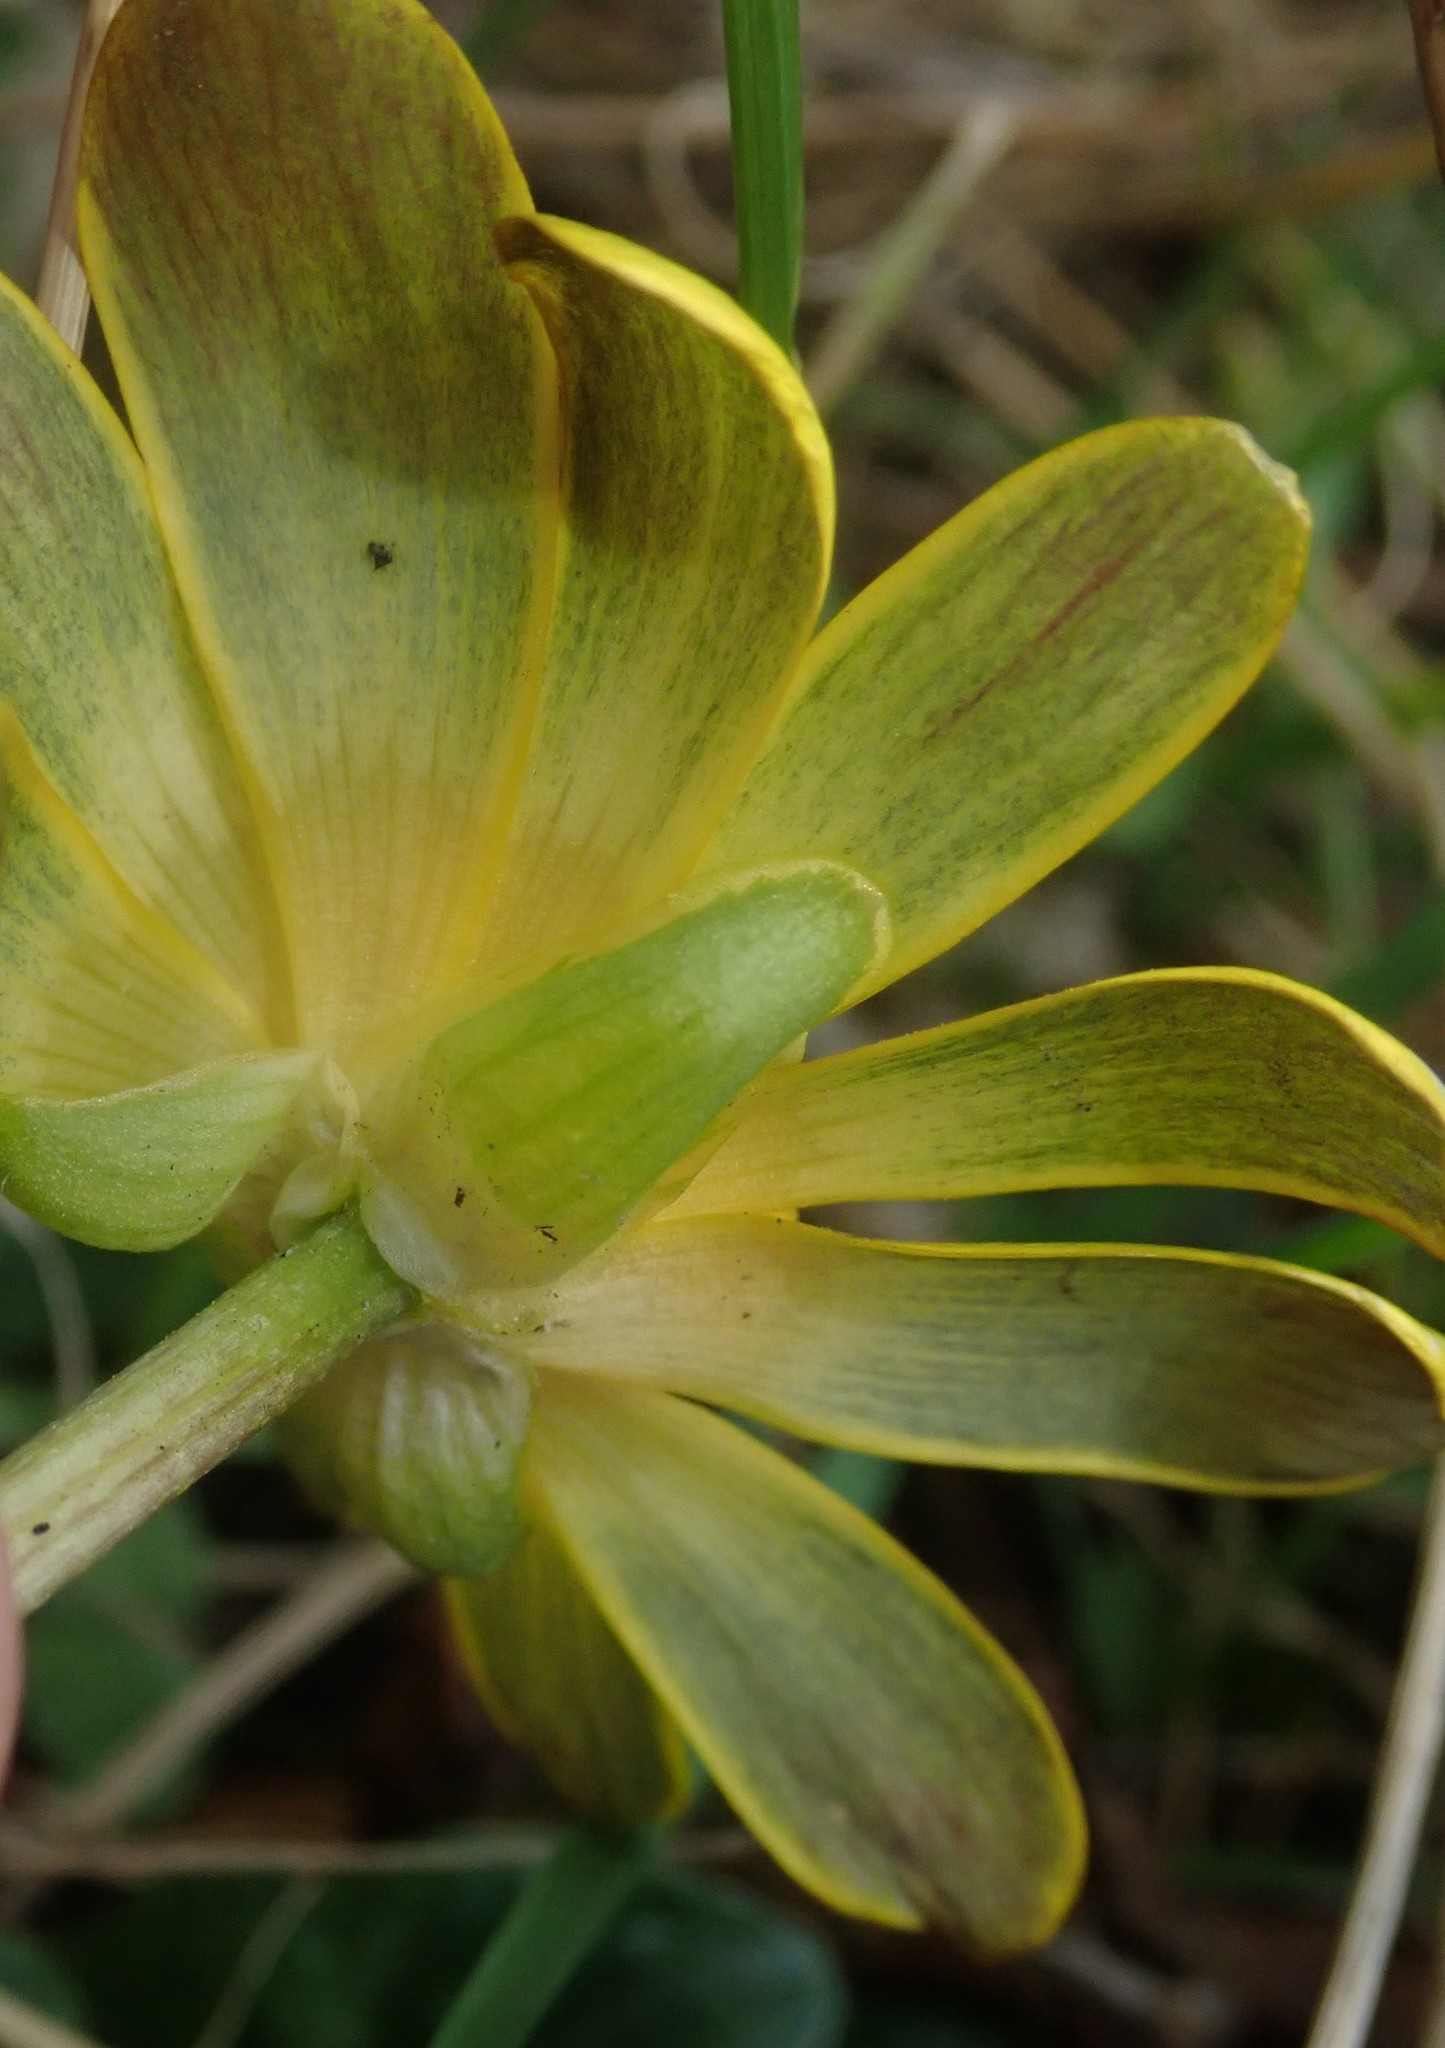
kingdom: Plantae
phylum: Tracheophyta
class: Magnoliopsida
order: Ranunculales
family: Ranunculaceae
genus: Ficaria
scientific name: Ficaria verna
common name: Lesser celandine
